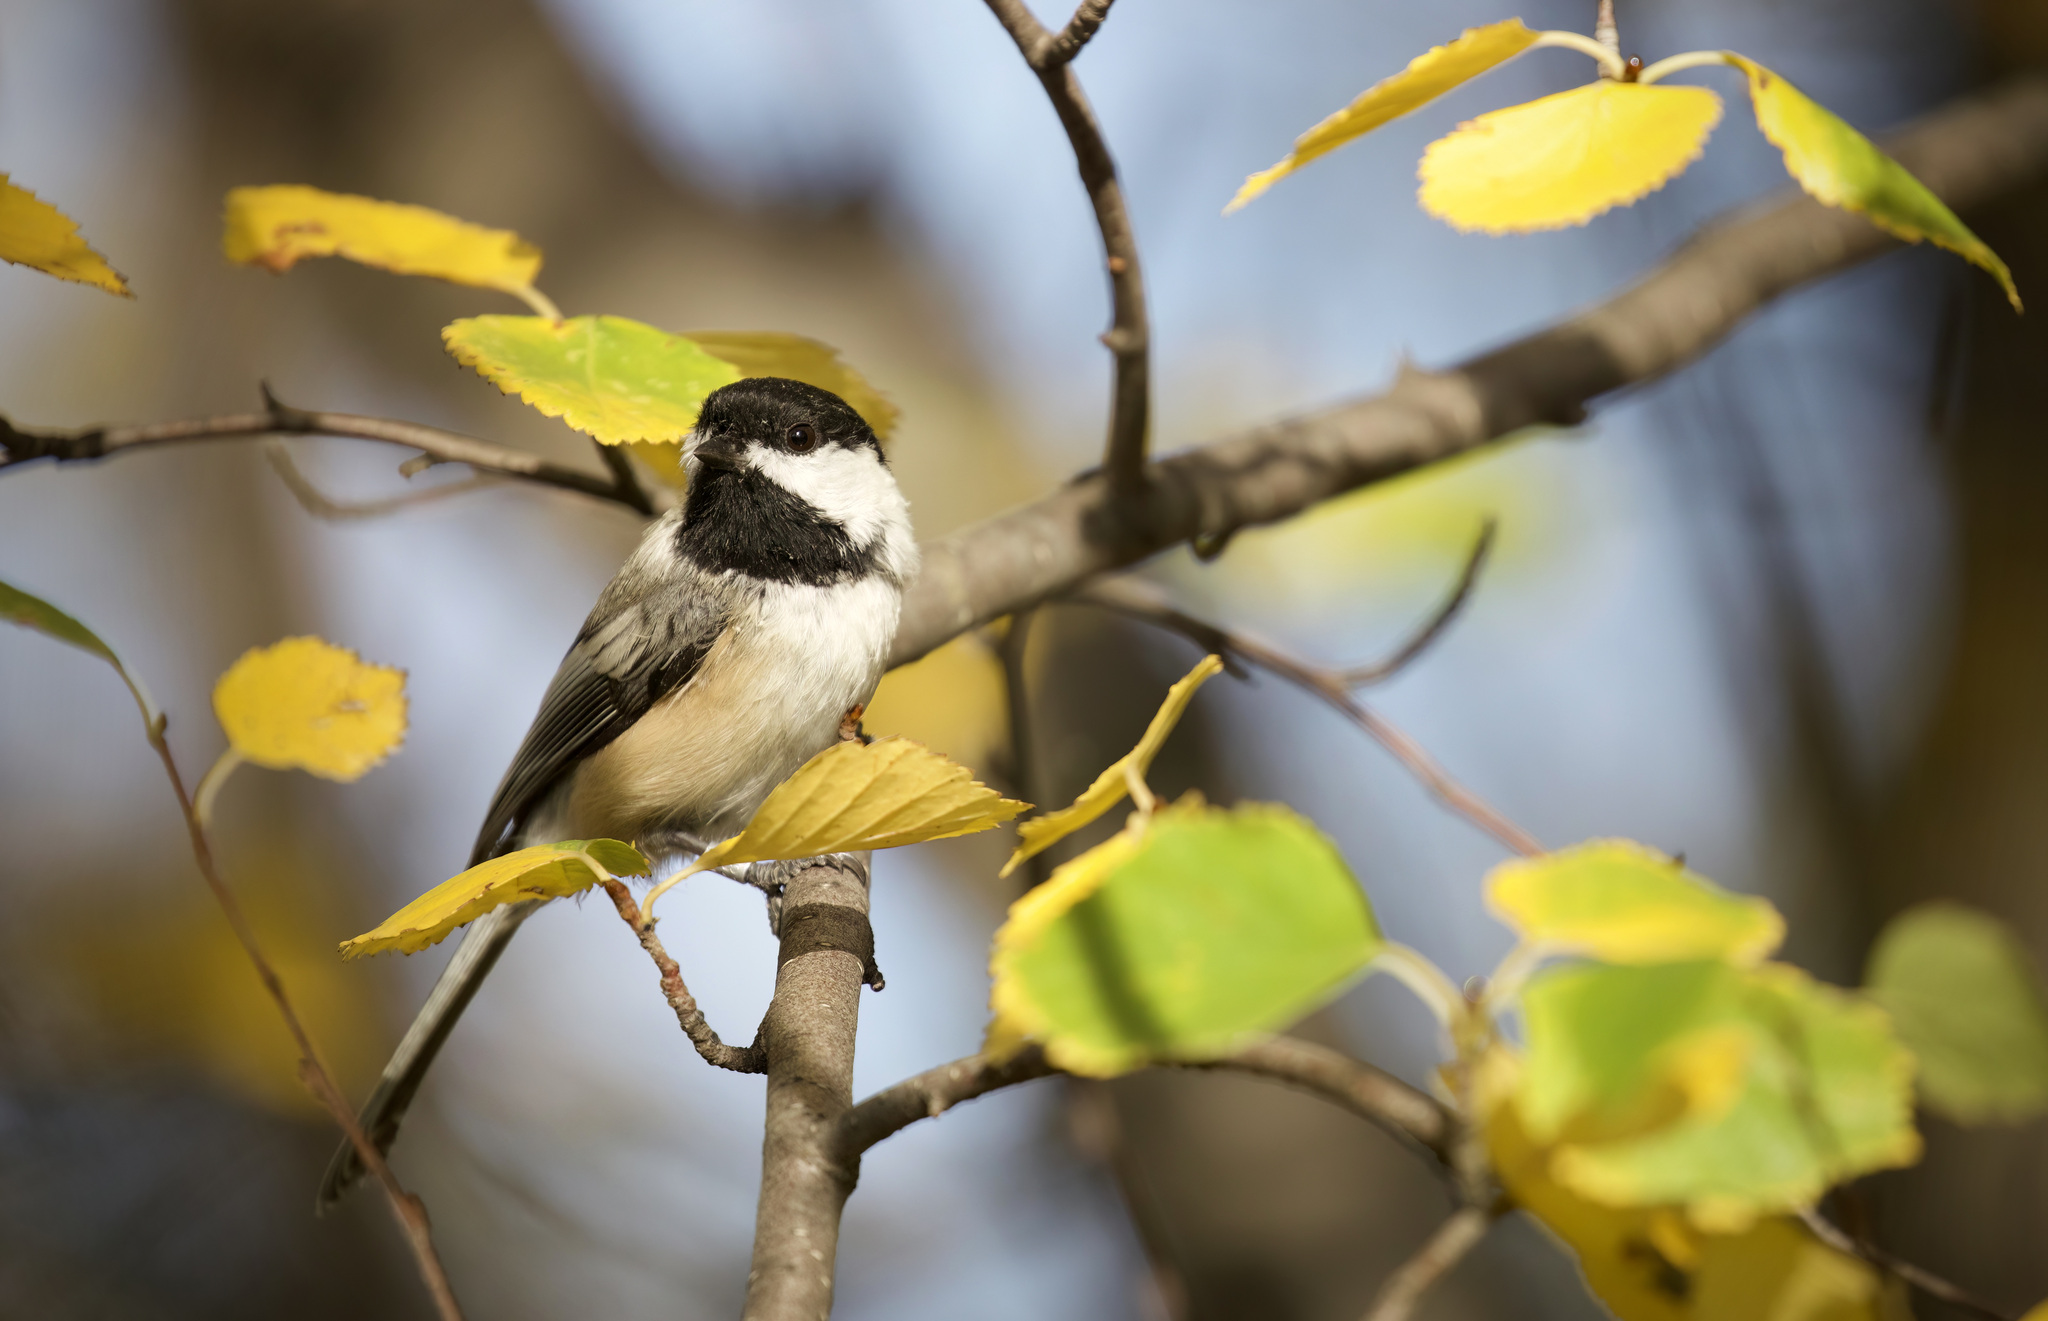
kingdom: Animalia
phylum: Chordata
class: Aves
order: Passeriformes
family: Paridae
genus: Poecile
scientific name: Poecile atricapillus
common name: Black-capped chickadee
